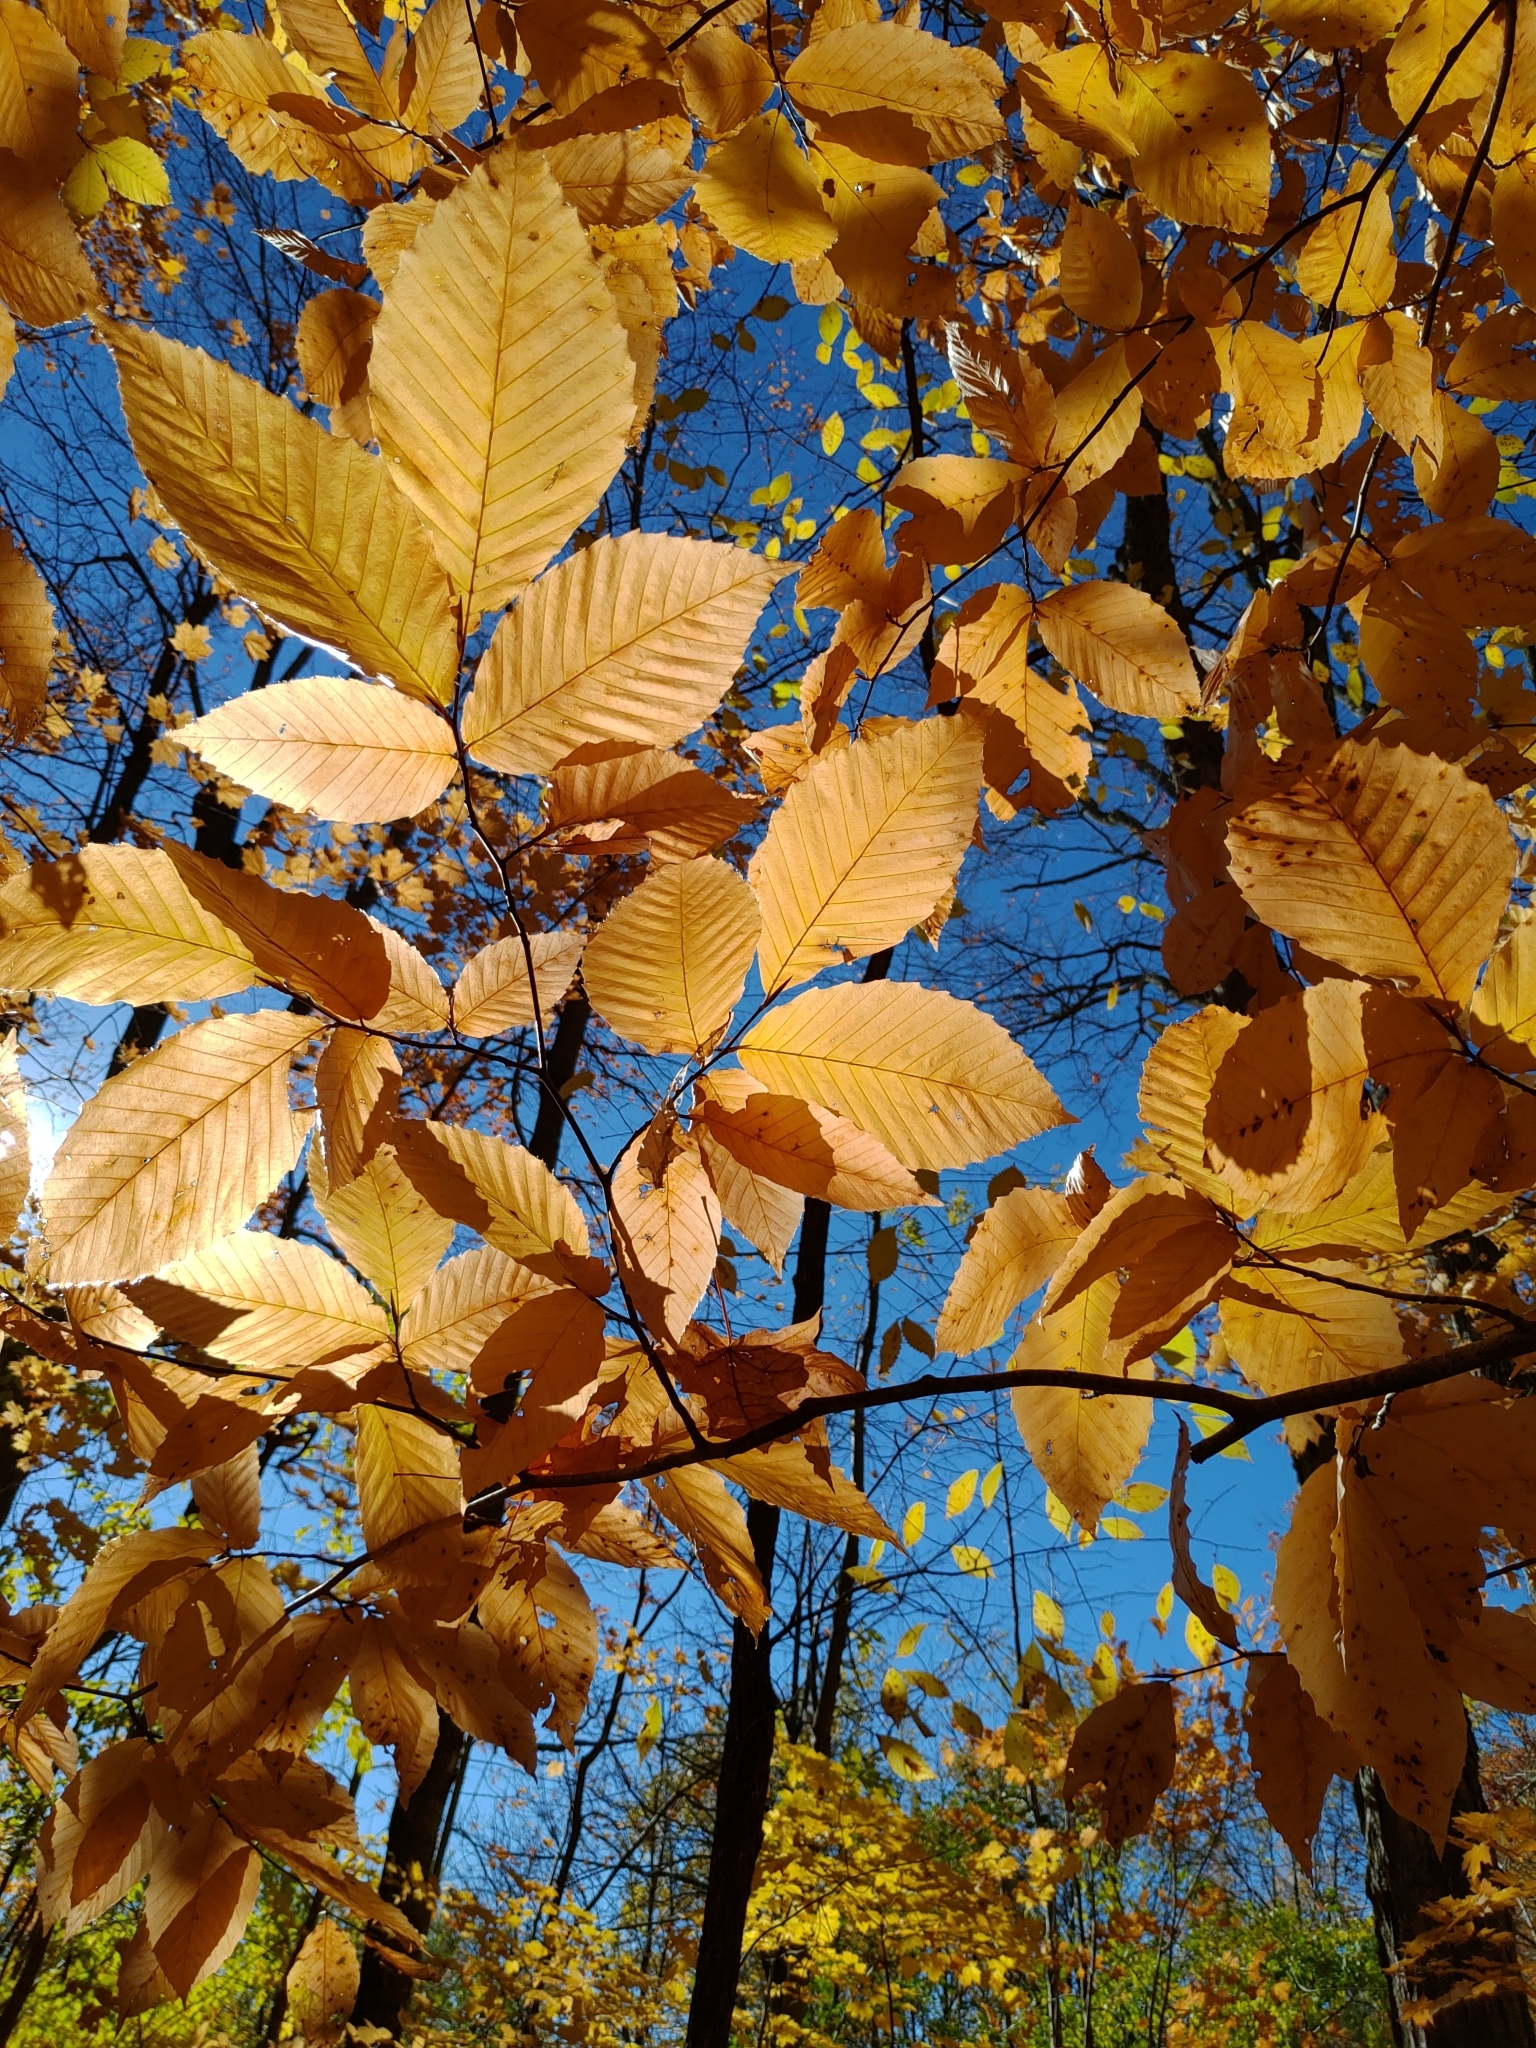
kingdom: Plantae
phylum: Tracheophyta
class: Magnoliopsida
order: Fagales
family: Fagaceae
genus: Fagus
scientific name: Fagus grandifolia
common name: American beech
